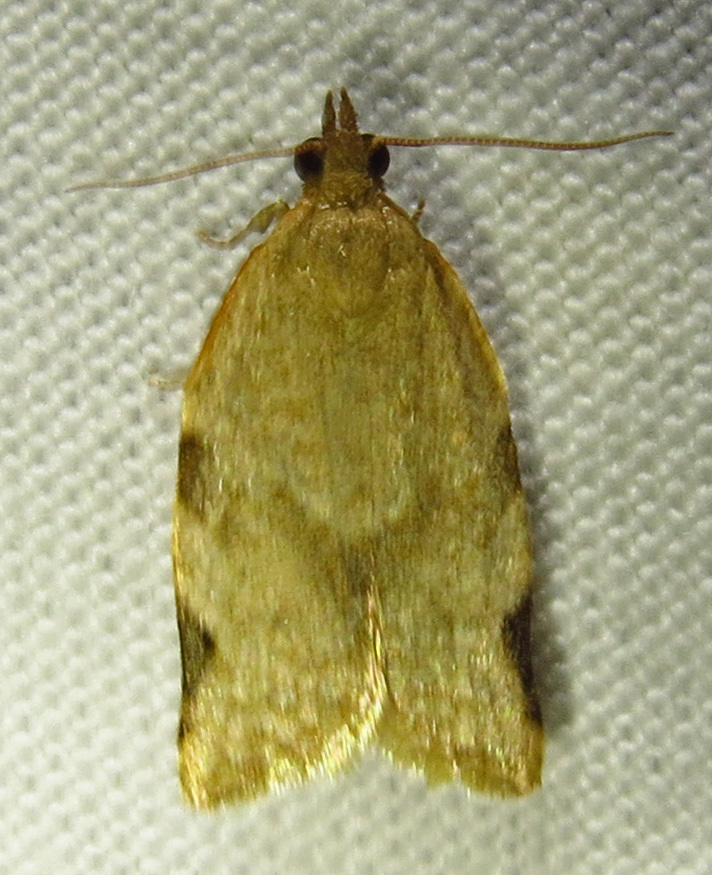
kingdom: Animalia
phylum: Arthropoda
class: Insecta
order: Lepidoptera
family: Tortricidae
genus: Clepsis
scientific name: Clepsis virescana
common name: Greenish apple moth
